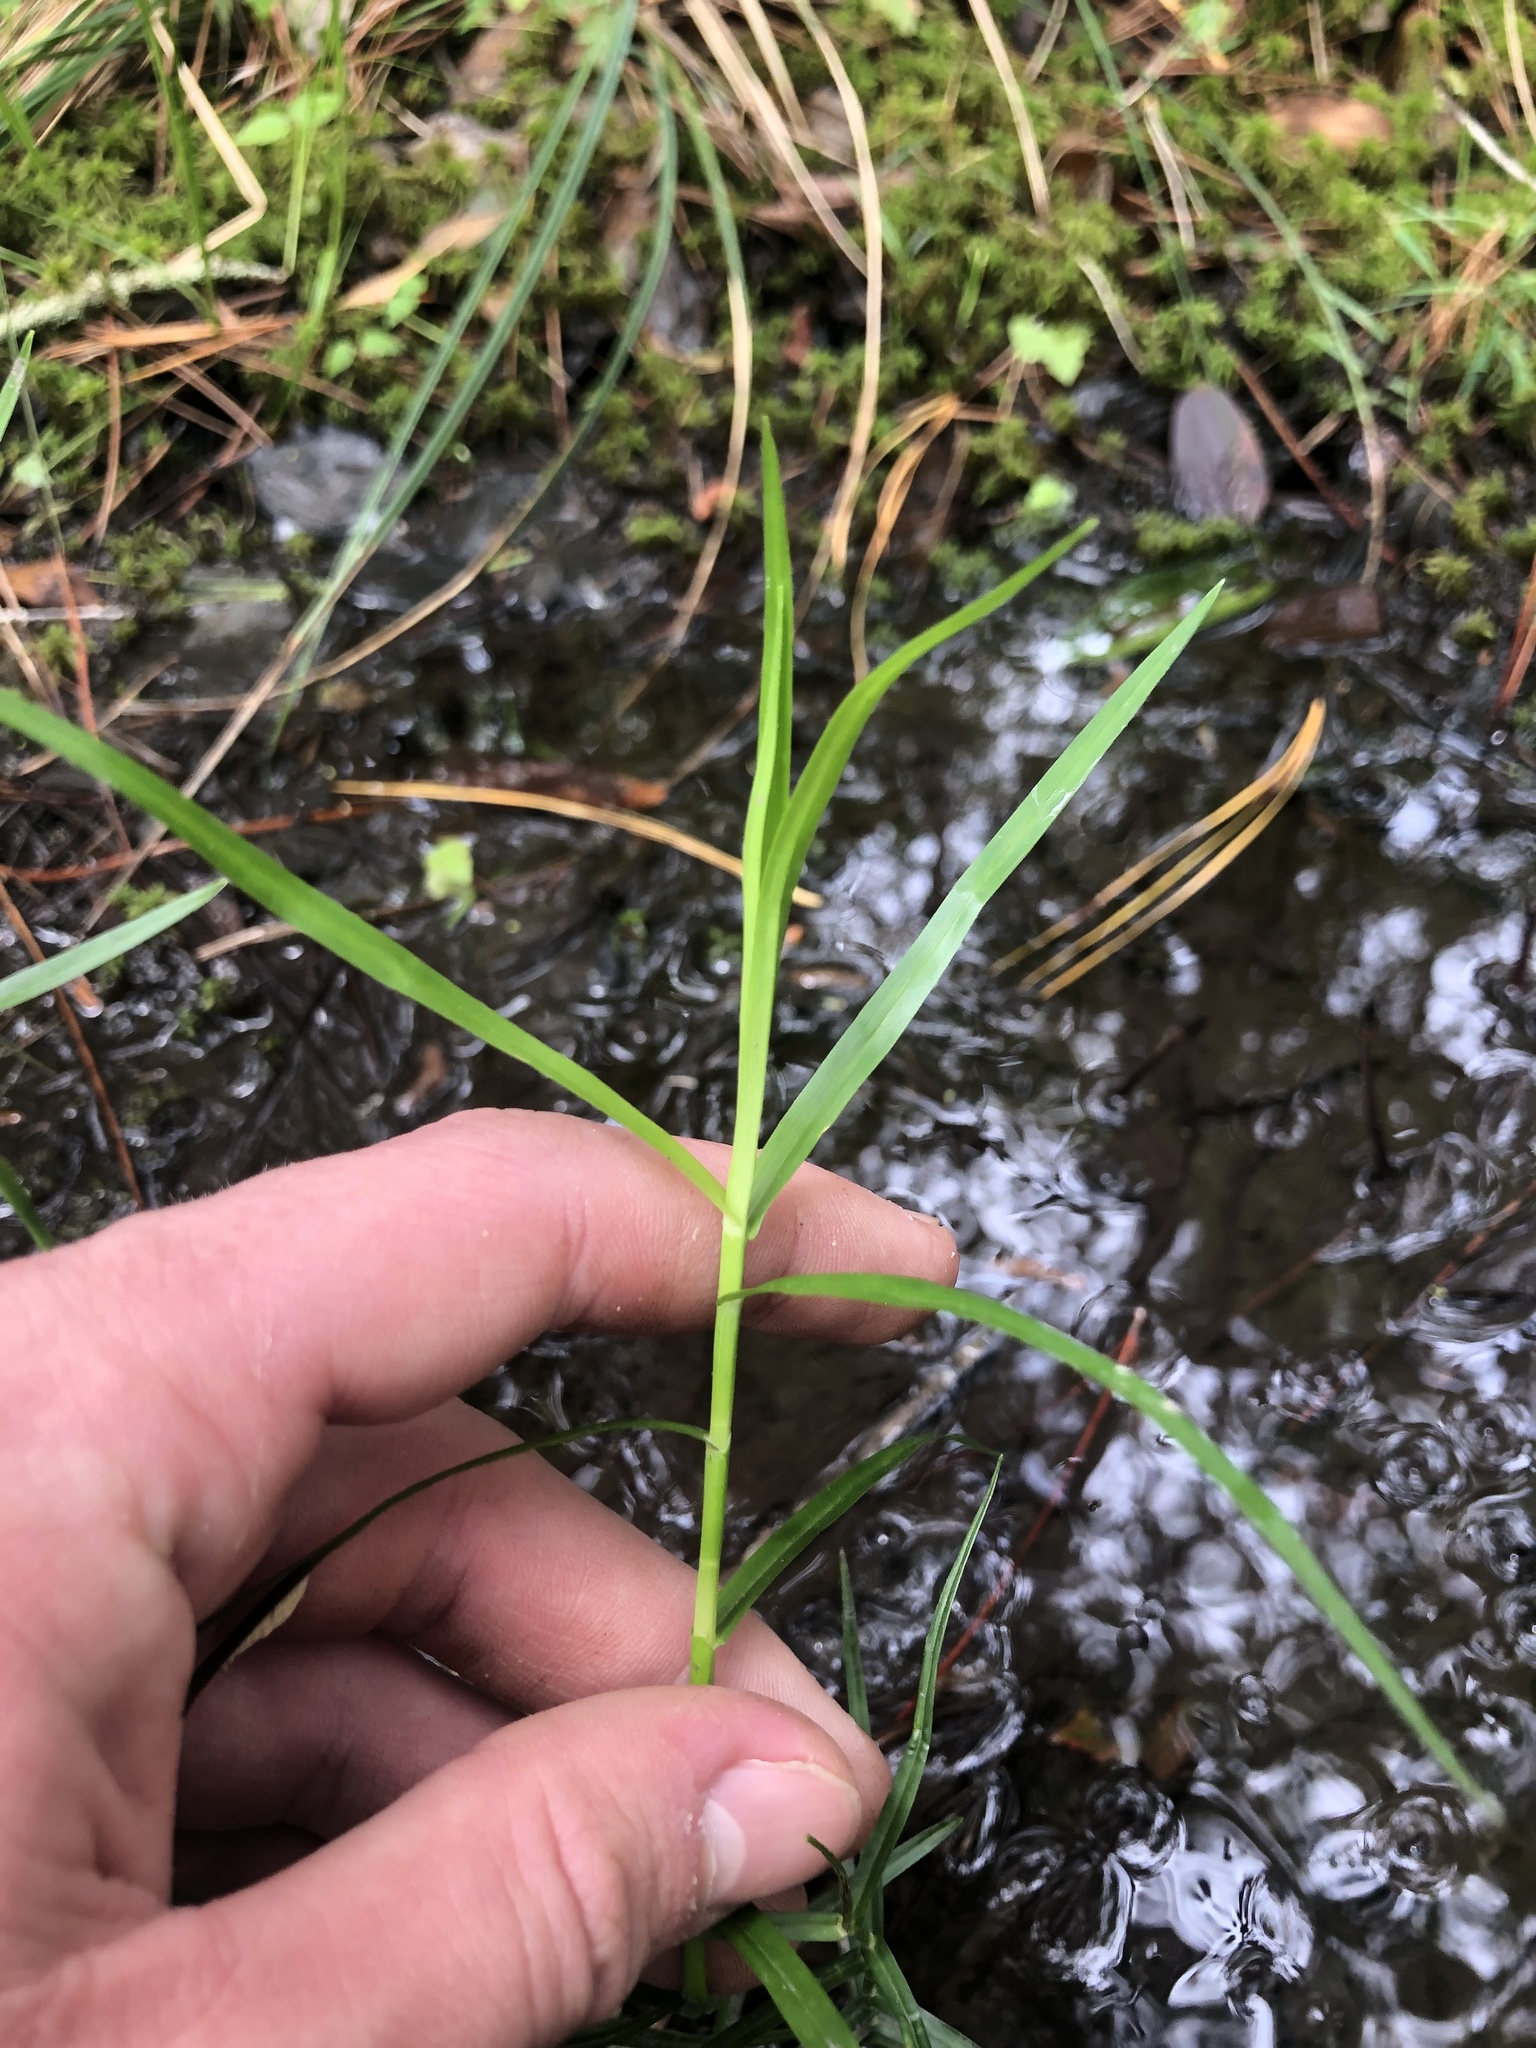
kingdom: Plantae
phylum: Tracheophyta
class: Liliopsida
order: Poales
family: Cyperaceae
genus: Dulichium
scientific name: Dulichium arundinaceum
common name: Three-way sedge
